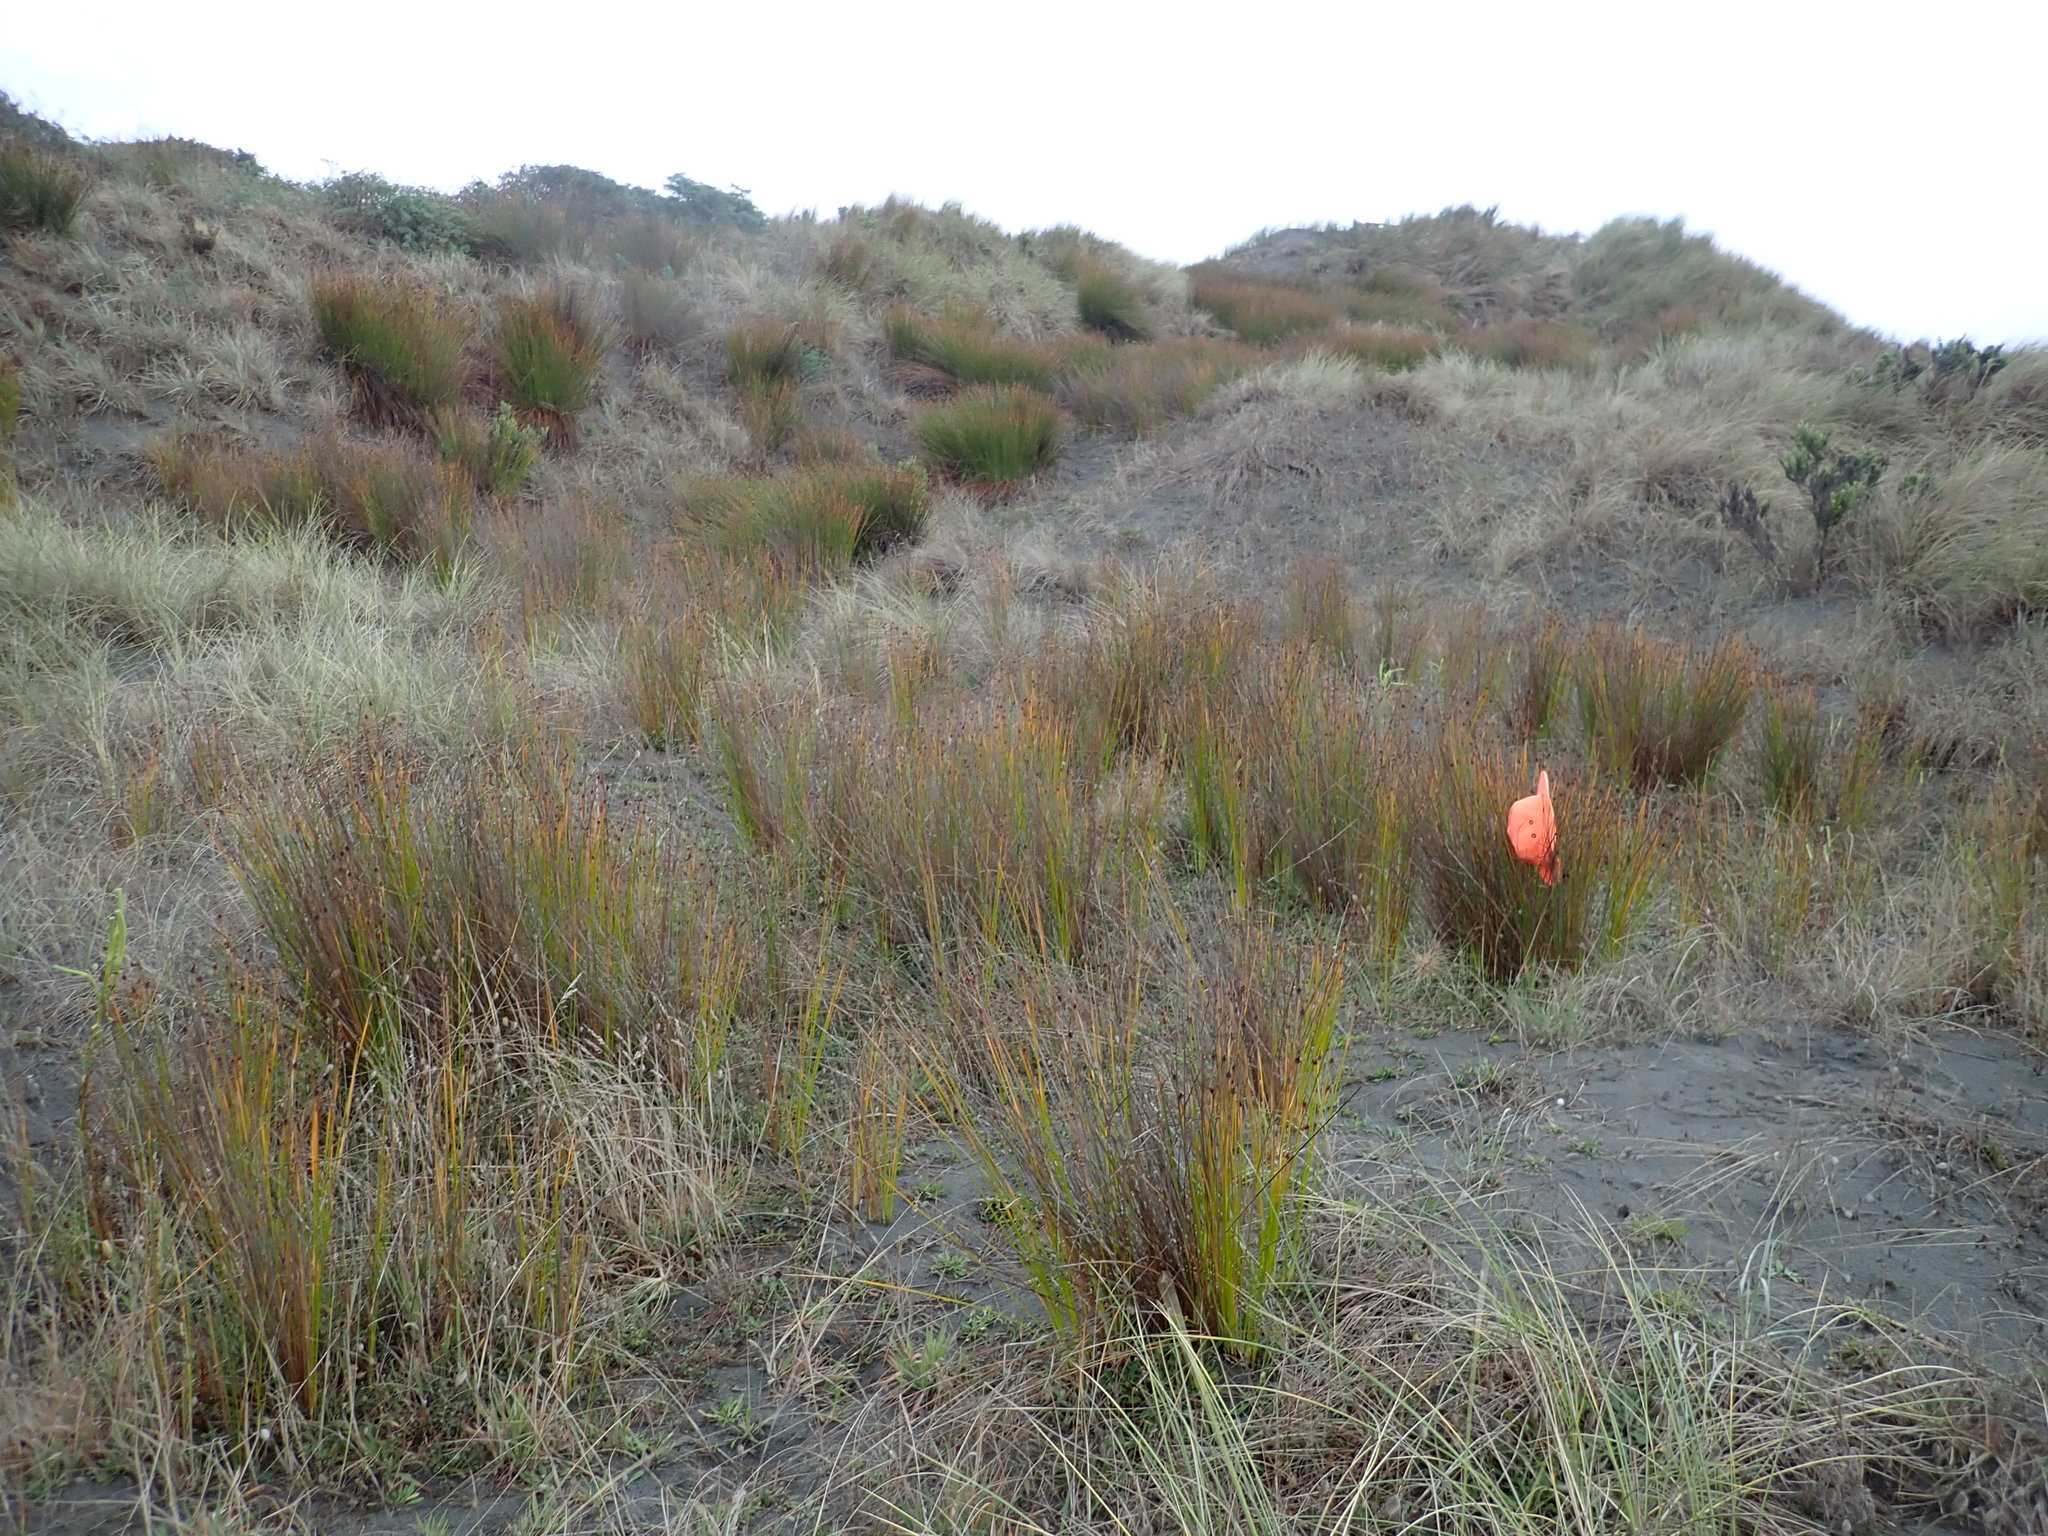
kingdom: Plantae
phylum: Tracheophyta
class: Liliopsida
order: Poales
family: Cyperaceae
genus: Ficinia
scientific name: Ficinia nodosa
